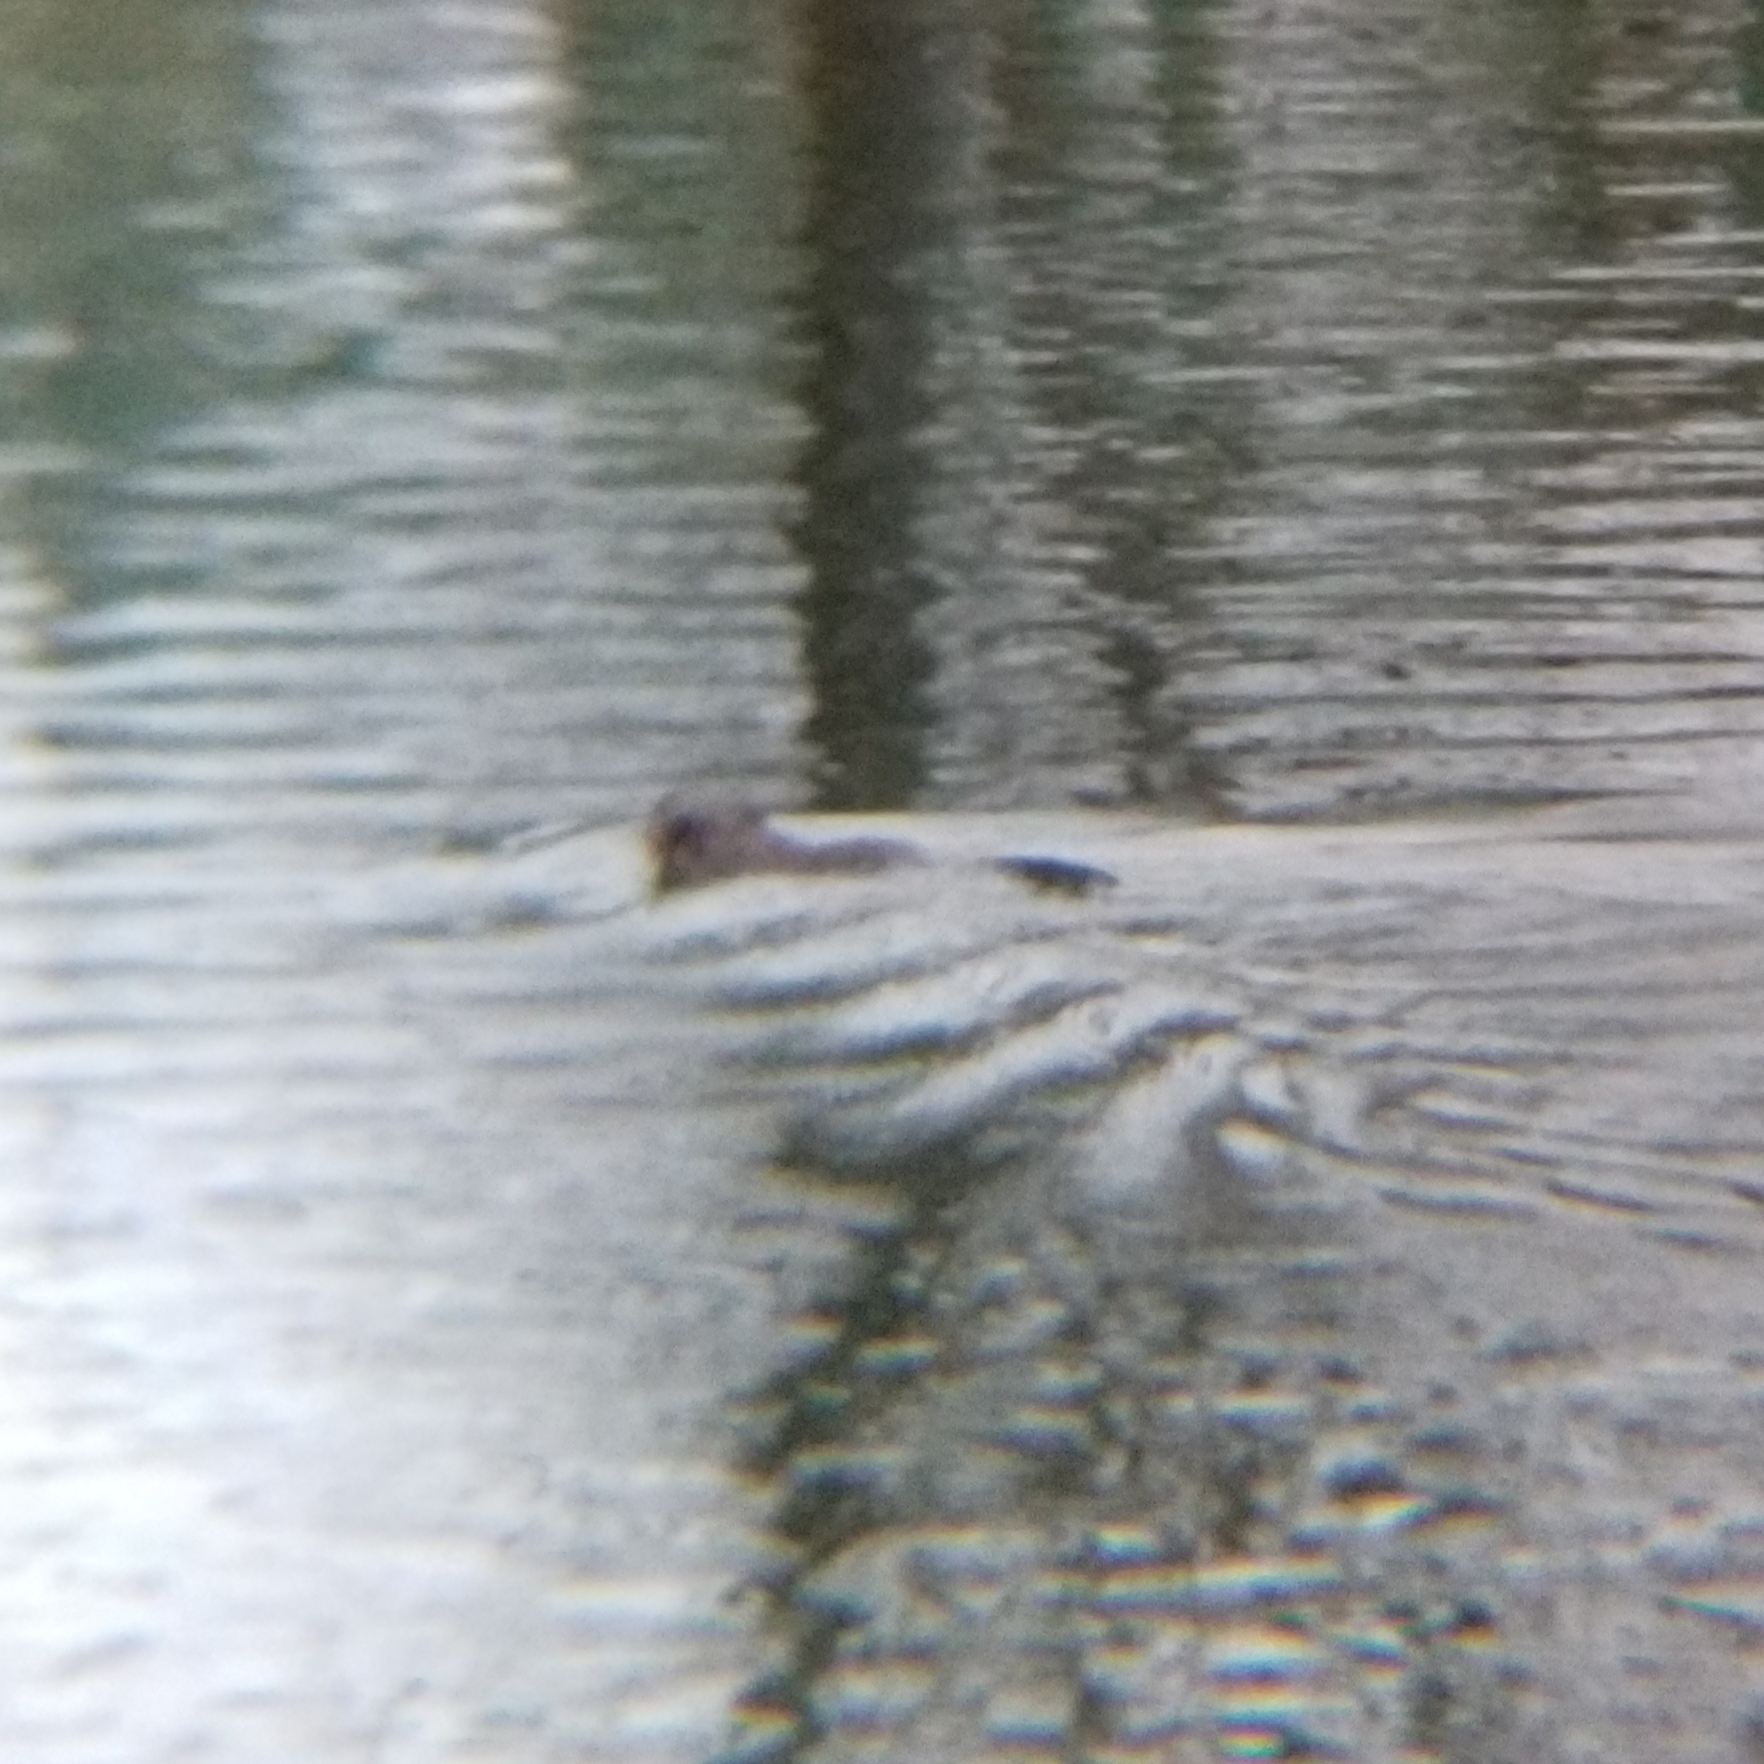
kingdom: Animalia
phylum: Chordata
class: Mammalia
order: Rodentia
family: Cricetidae
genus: Ondatra
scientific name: Ondatra zibethicus
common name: Muskrat
